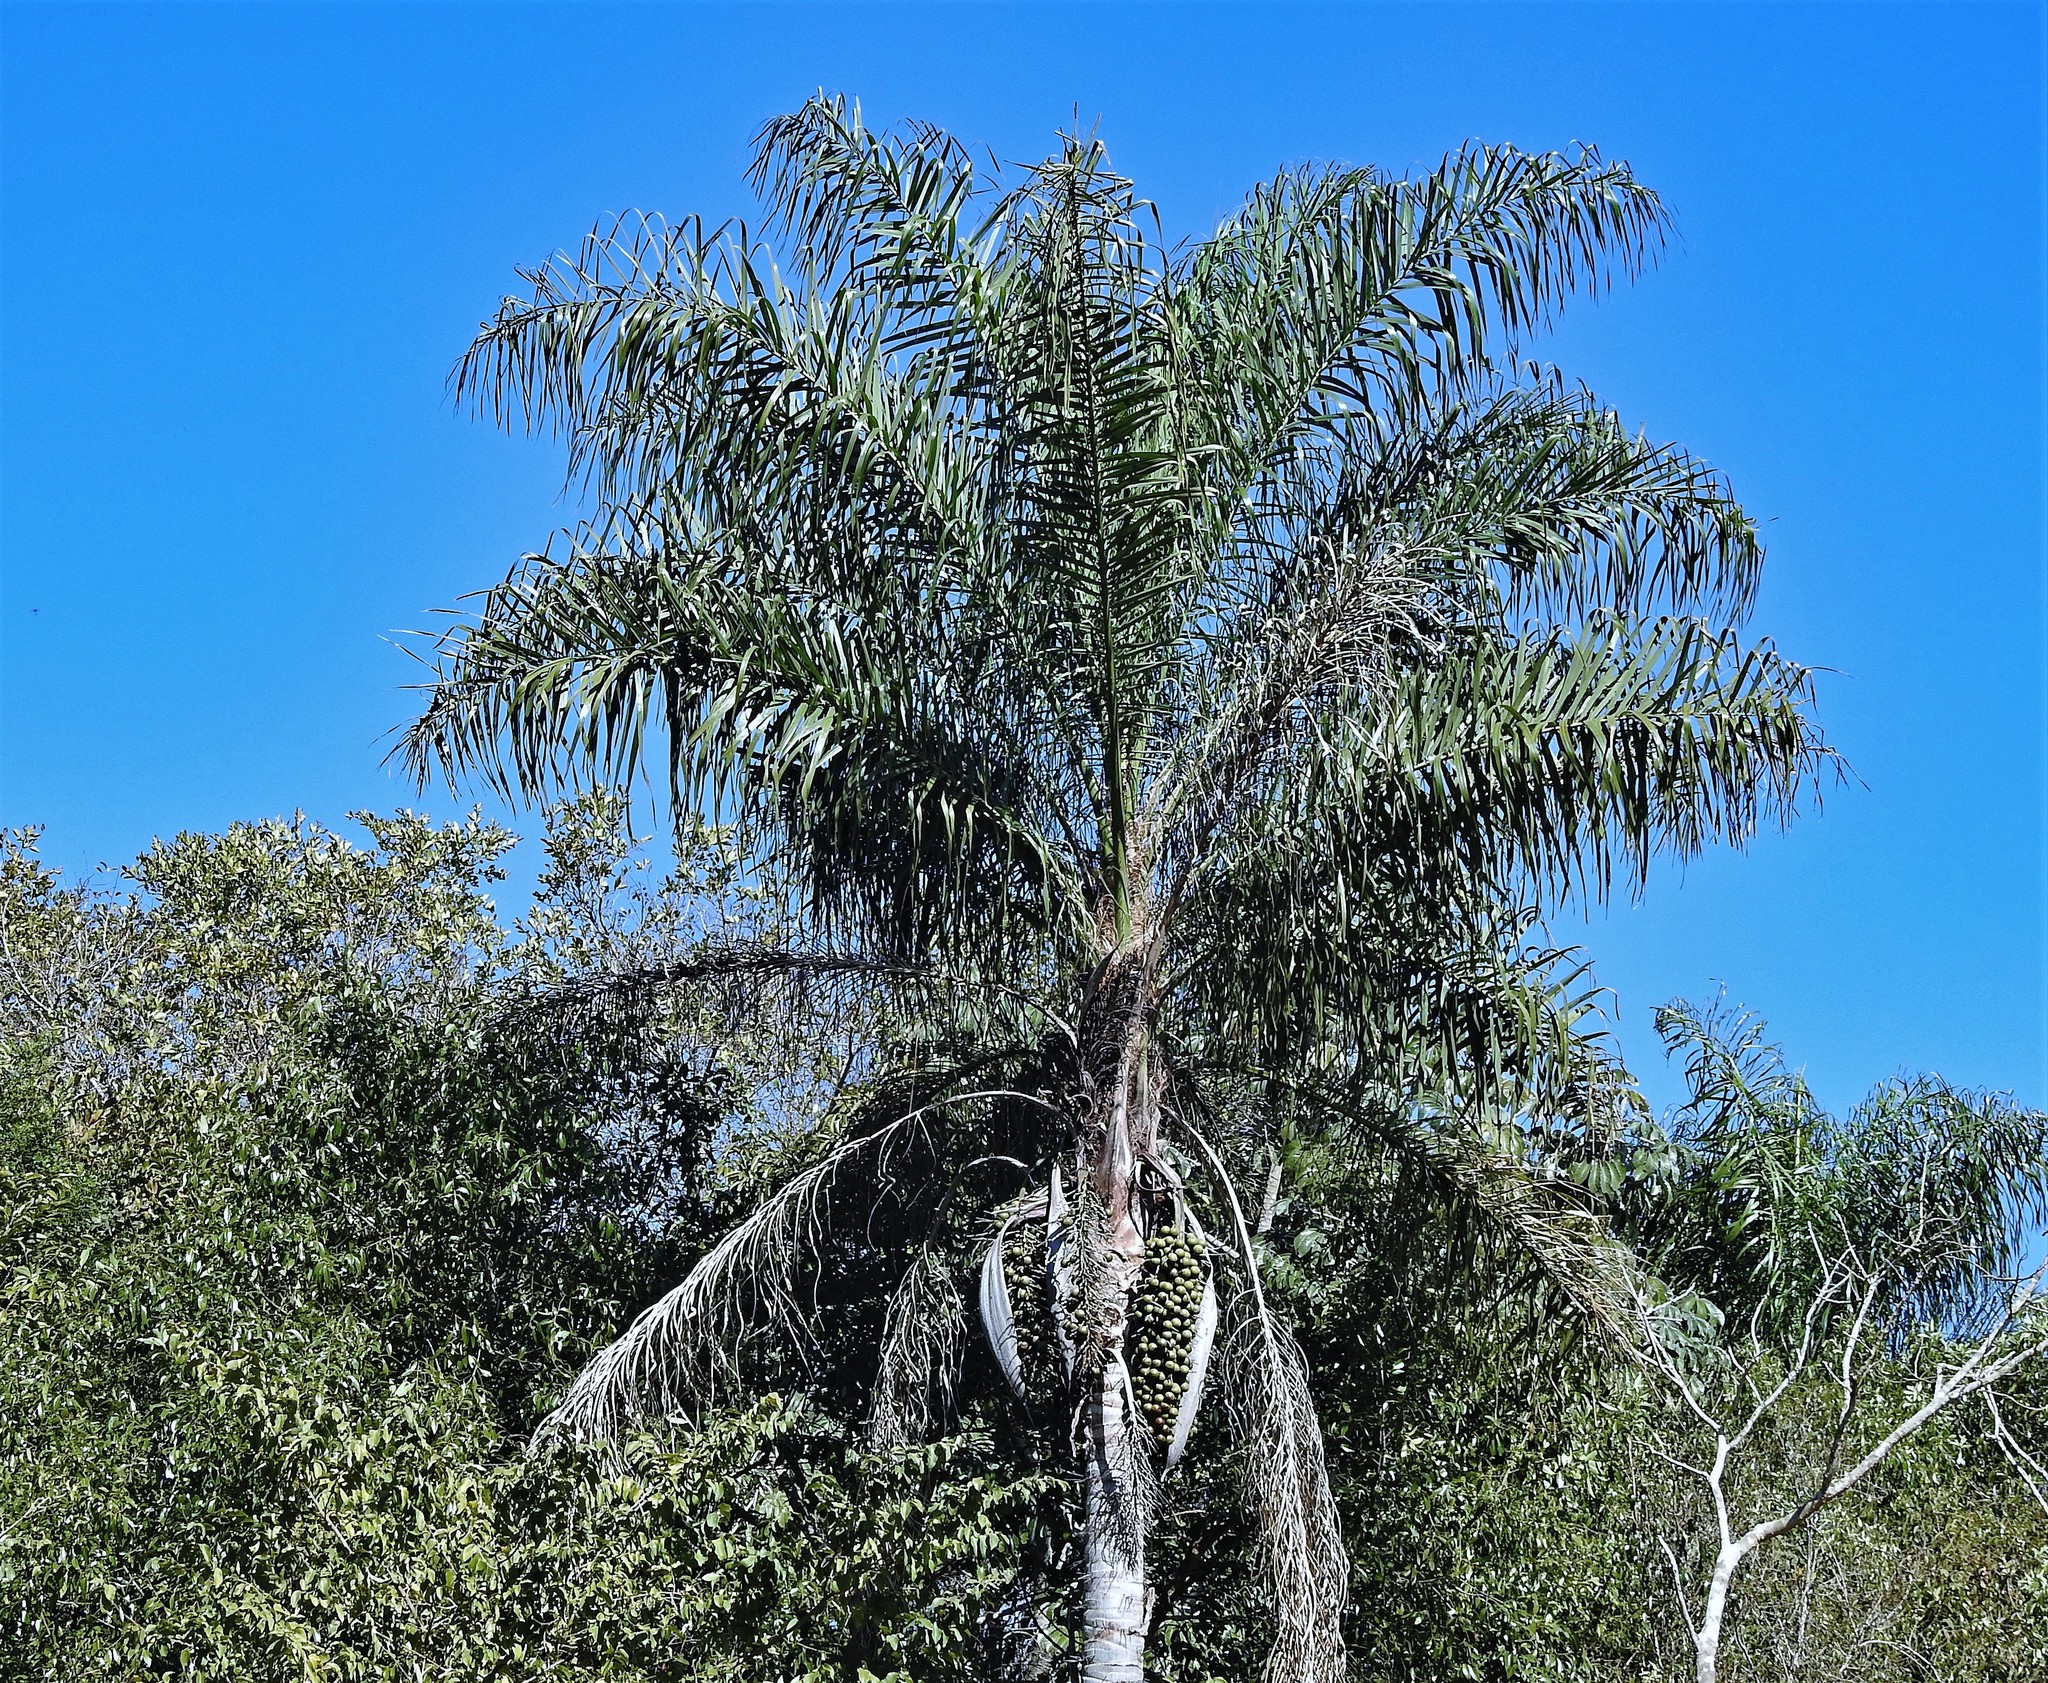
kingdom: Plantae
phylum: Tracheophyta
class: Liliopsida
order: Arecales
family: Arecaceae
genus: Acrocomia
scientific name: Acrocomia aculeata
